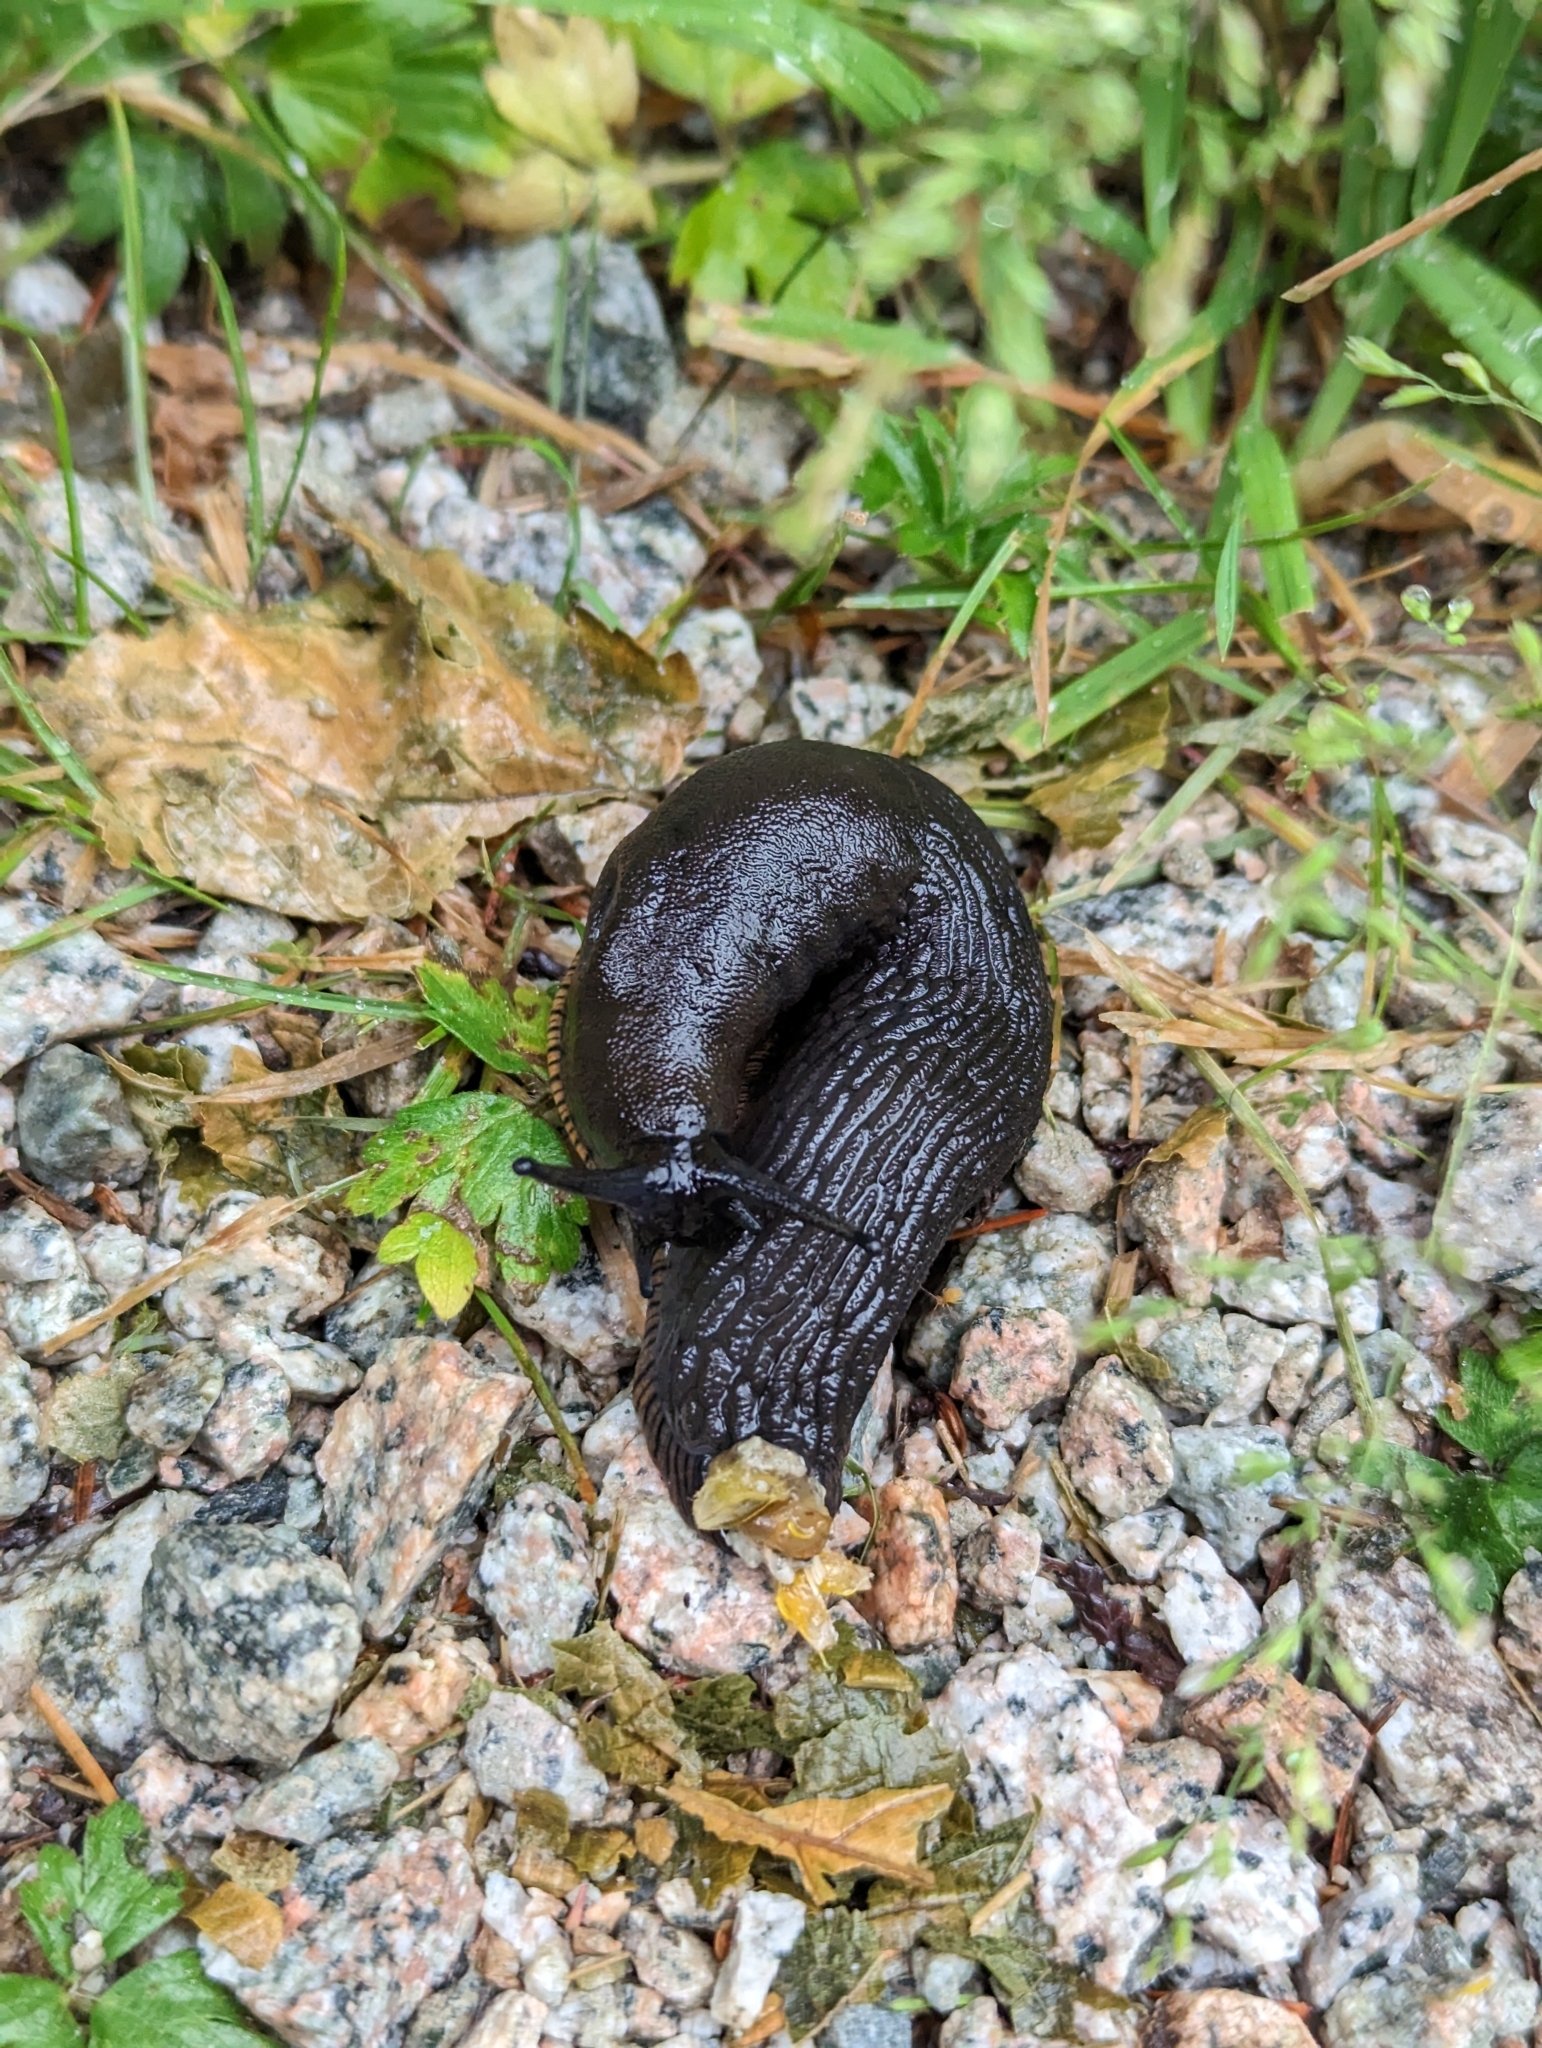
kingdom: Animalia
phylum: Mollusca
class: Gastropoda
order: Stylommatophora
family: Arionidae
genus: Arion
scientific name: Arion
